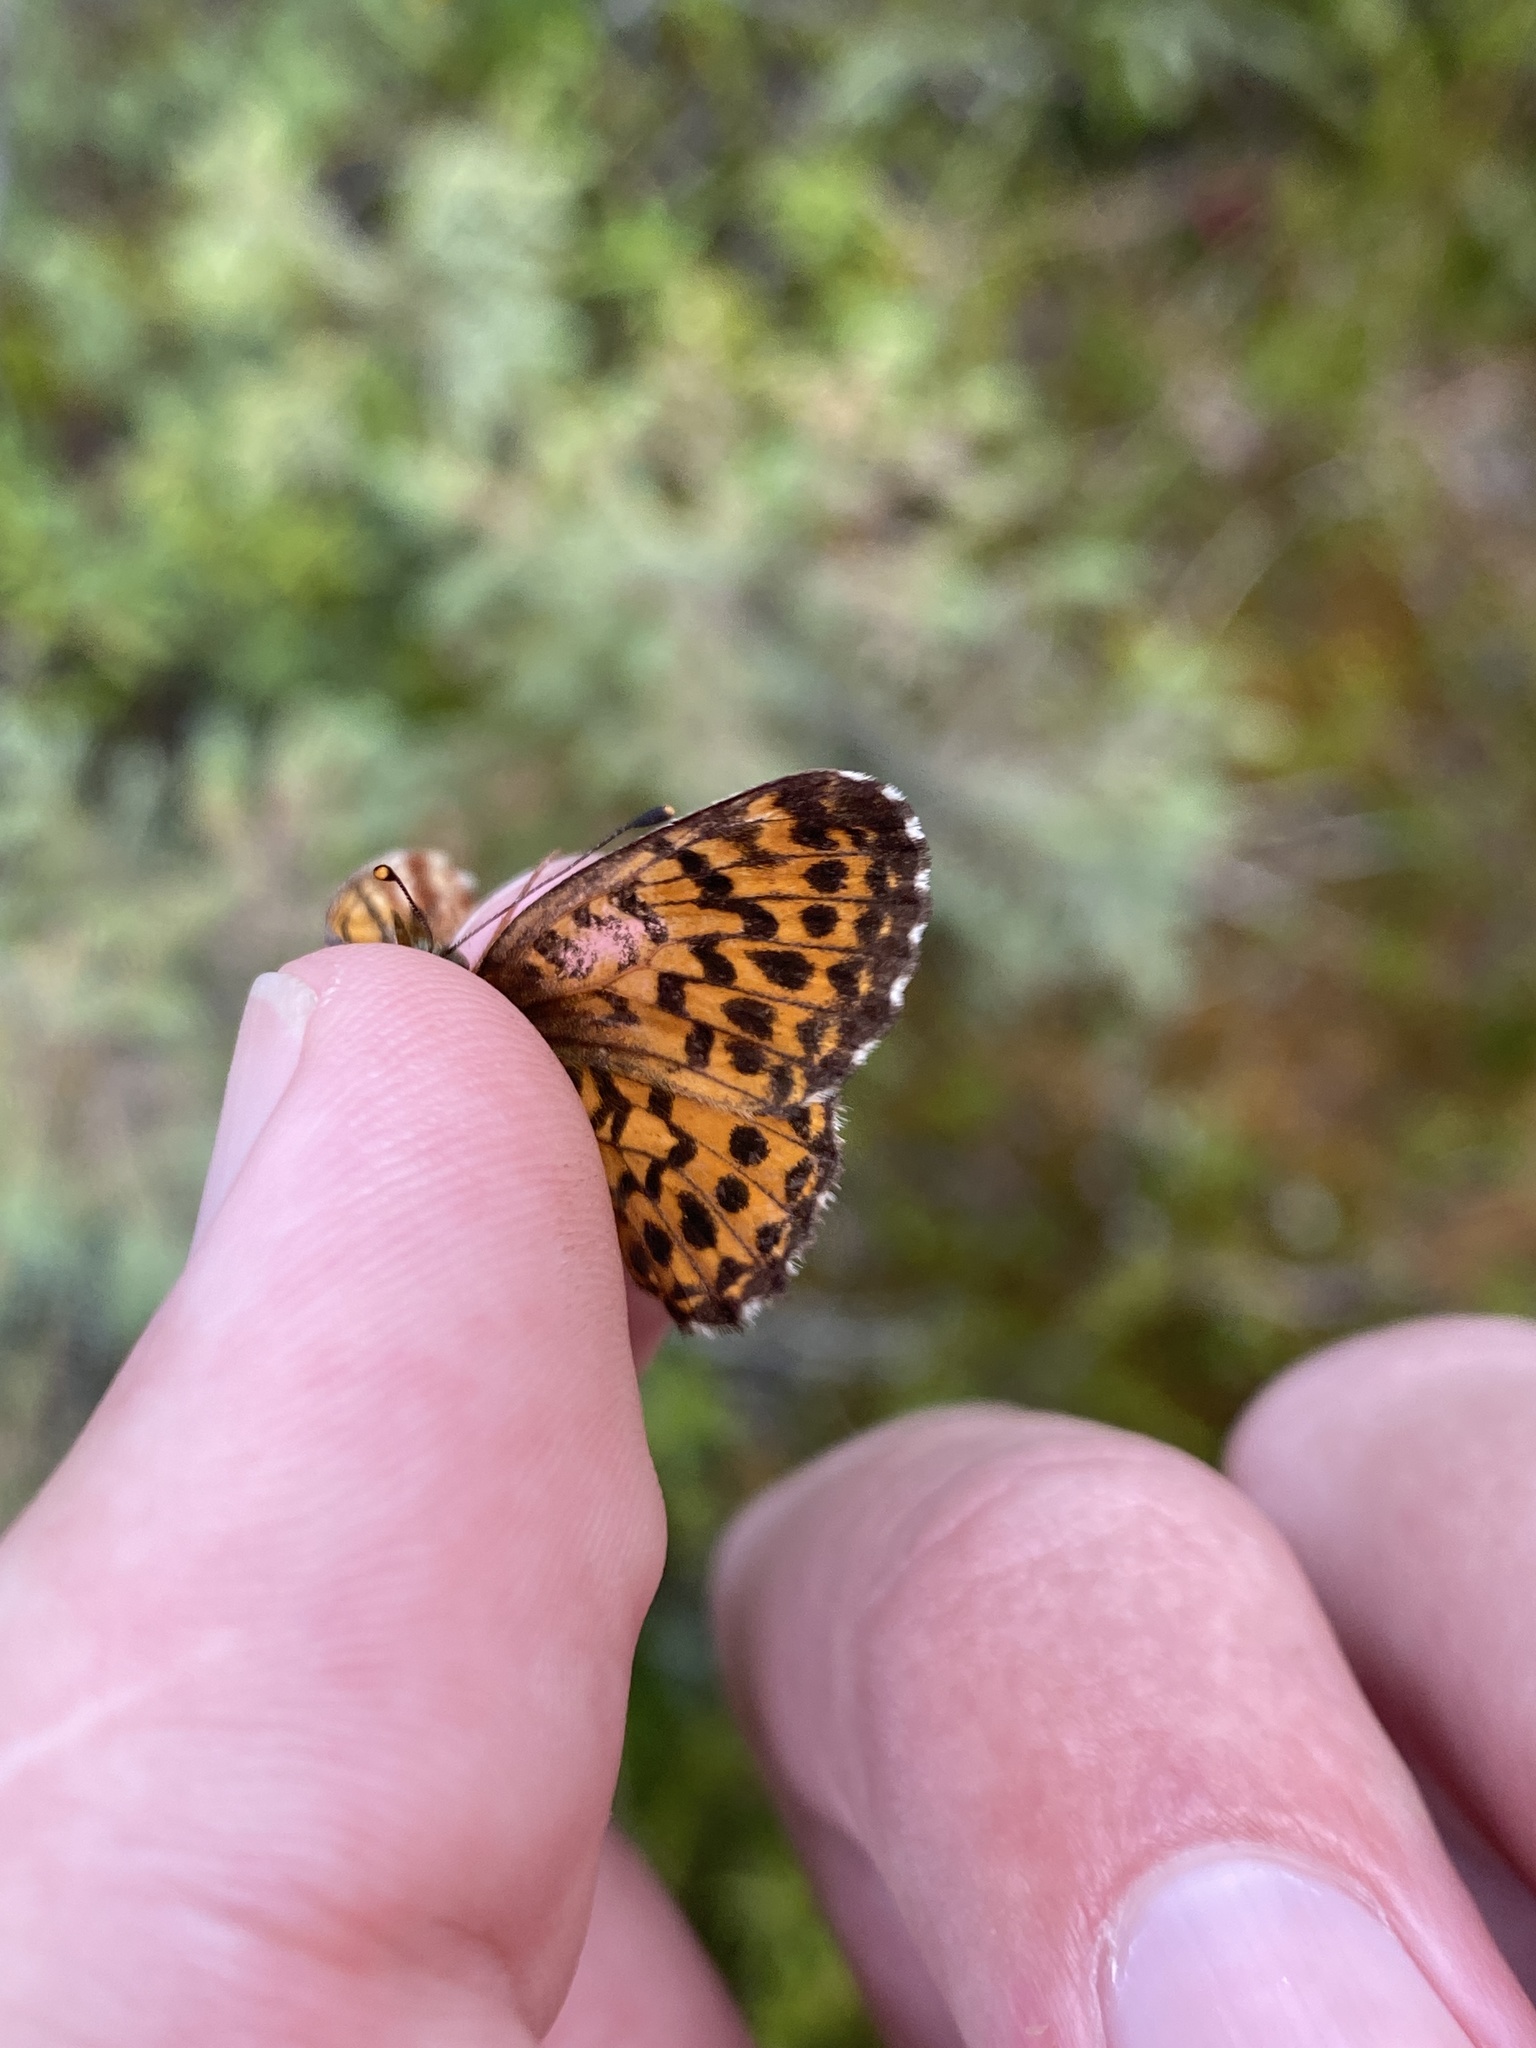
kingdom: Animalia
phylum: Arthropoda
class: Insecta
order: Lepidoptera
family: Nymphalidae
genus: Boloria
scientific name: Boloria chariclea
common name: Arctic fritillary
